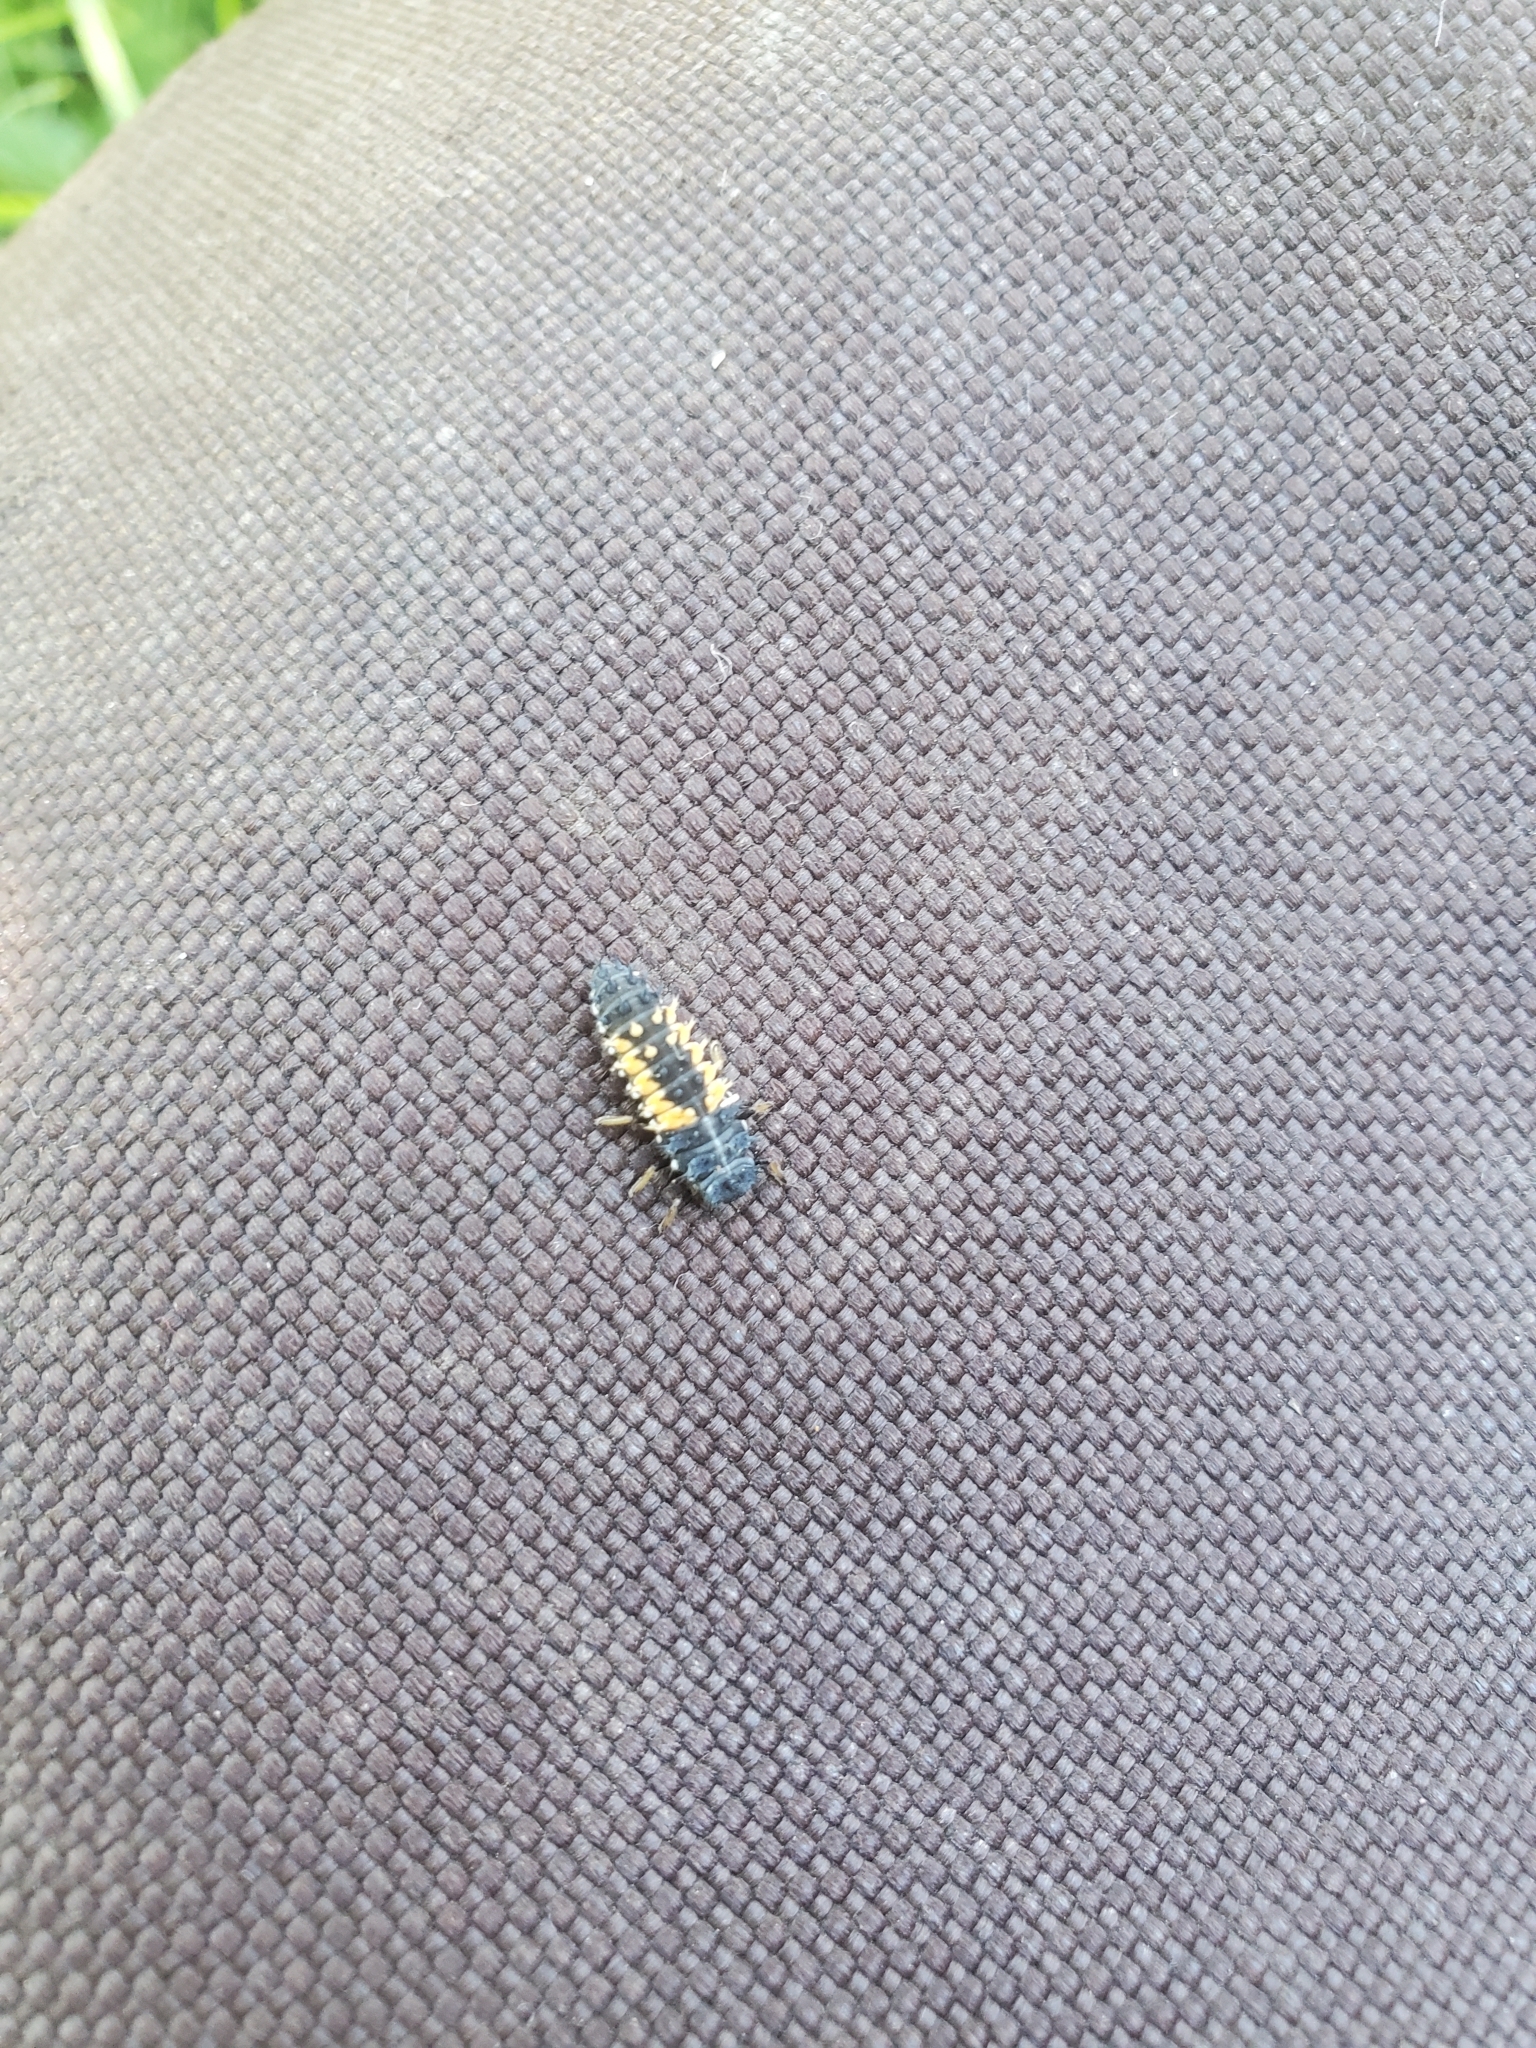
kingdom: Animalia
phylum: Arthropoda
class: Insecta
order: Coleoptera
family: Coccinellidae
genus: Harmonia
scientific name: Harmonia axyridis
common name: Harlequin ladybird
